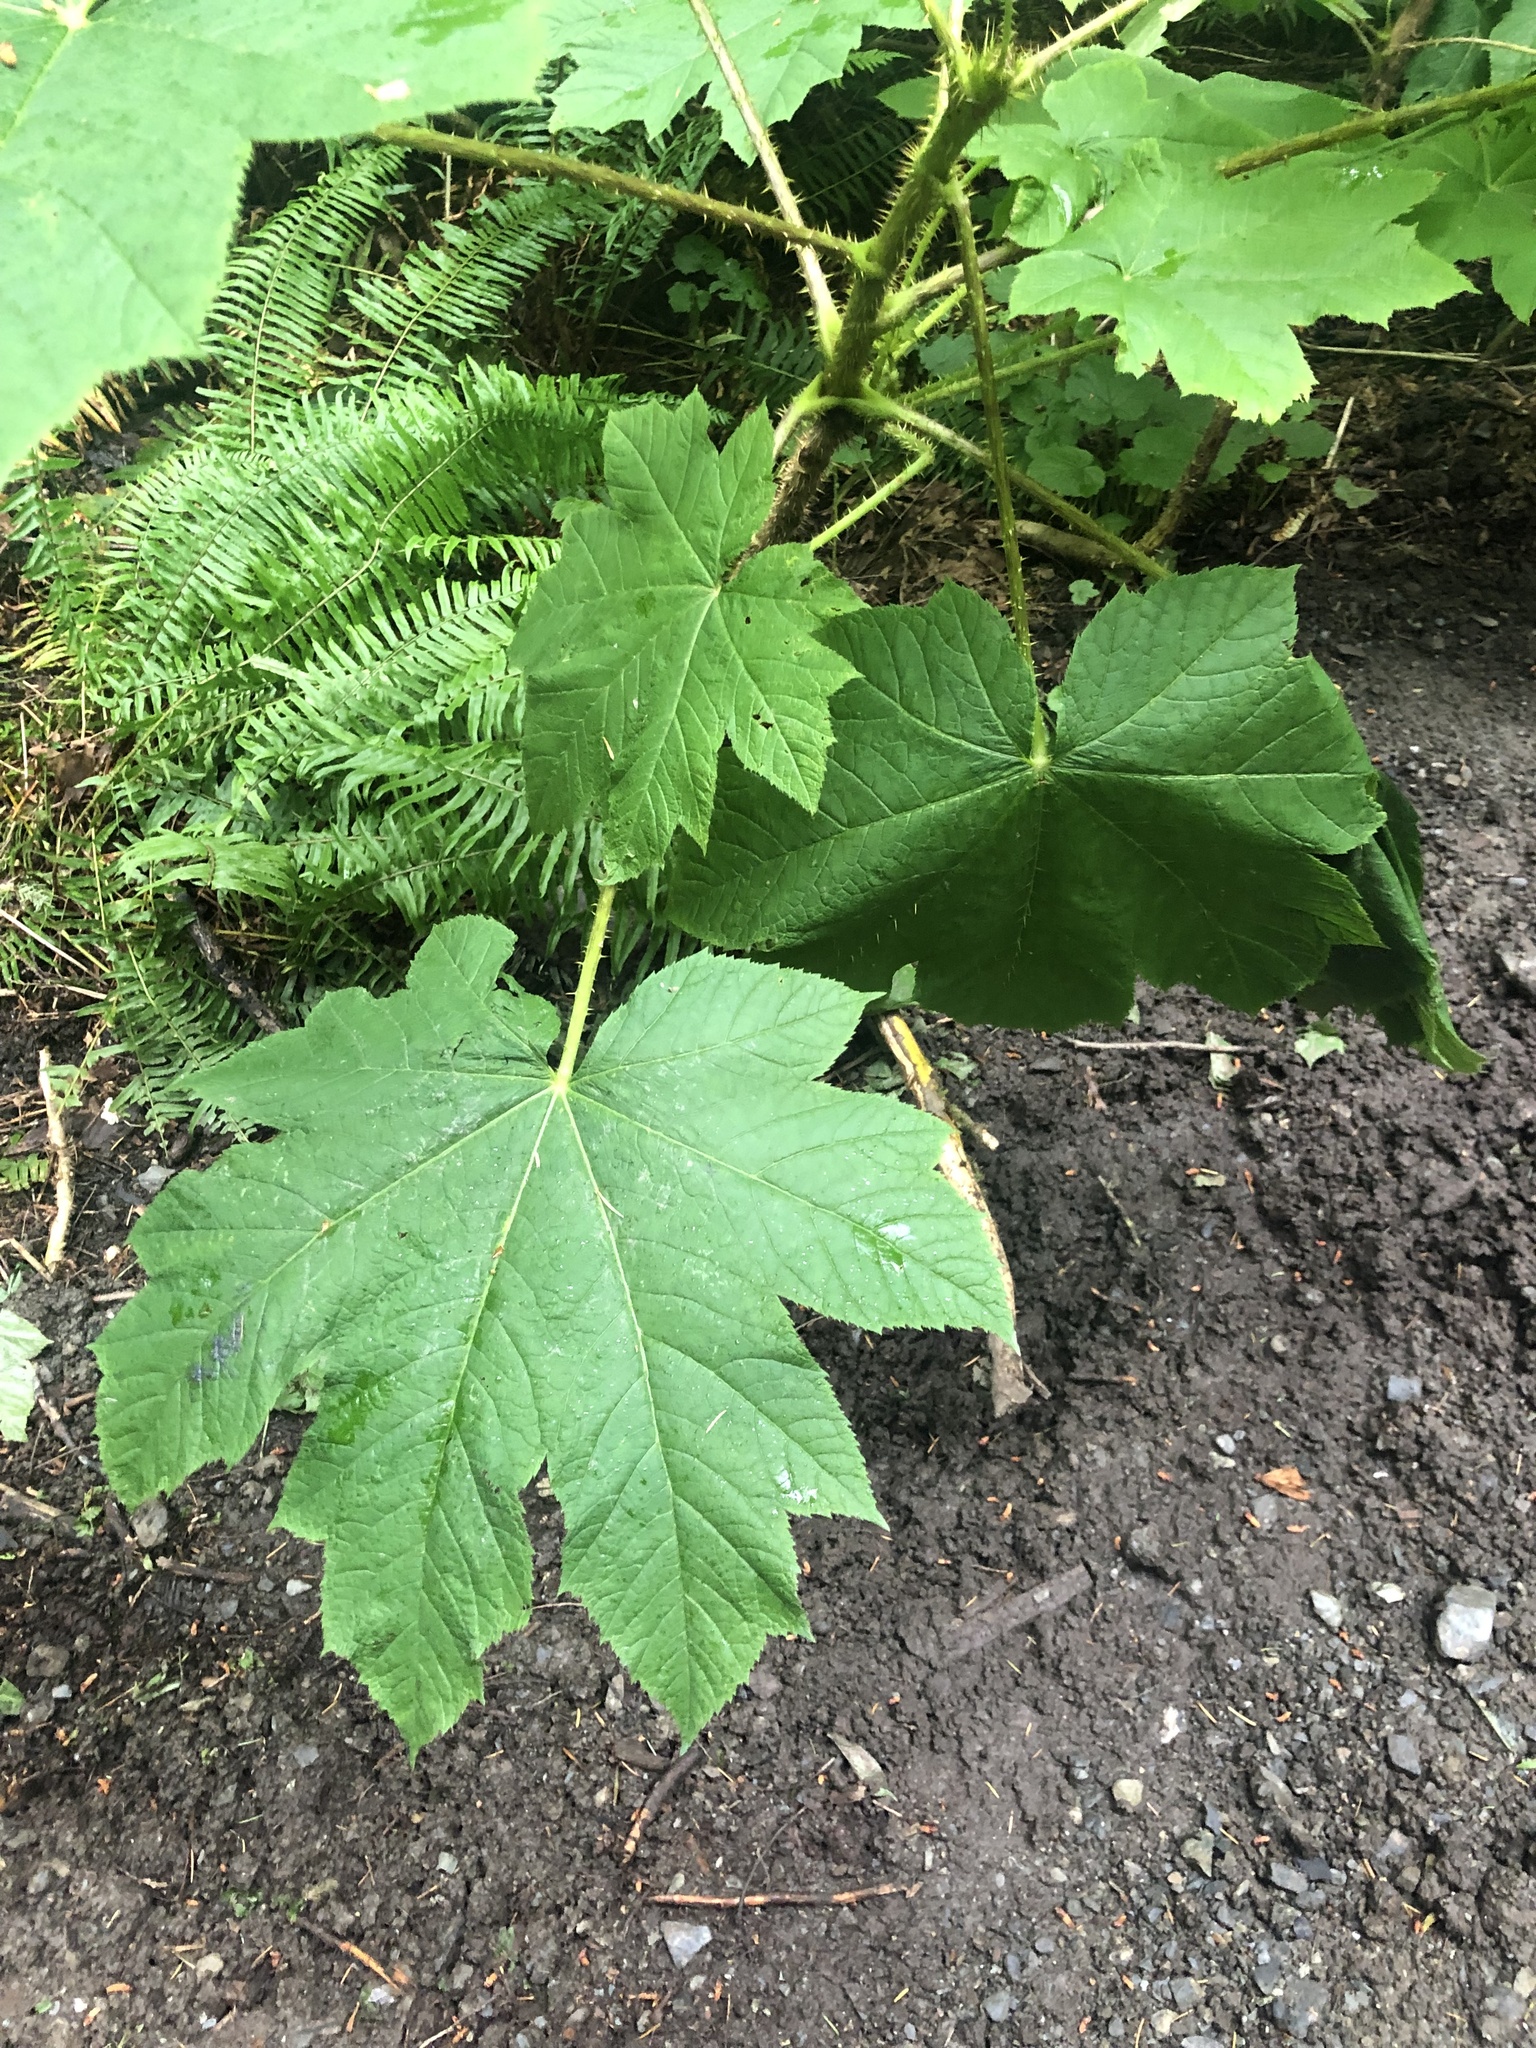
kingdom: Plantae
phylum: Tracheophyta
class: Magnoliopsida
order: Apiales
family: Araliaceae
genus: Oplopanax
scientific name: Oplopanax horridus
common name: Devil's walking-stick
